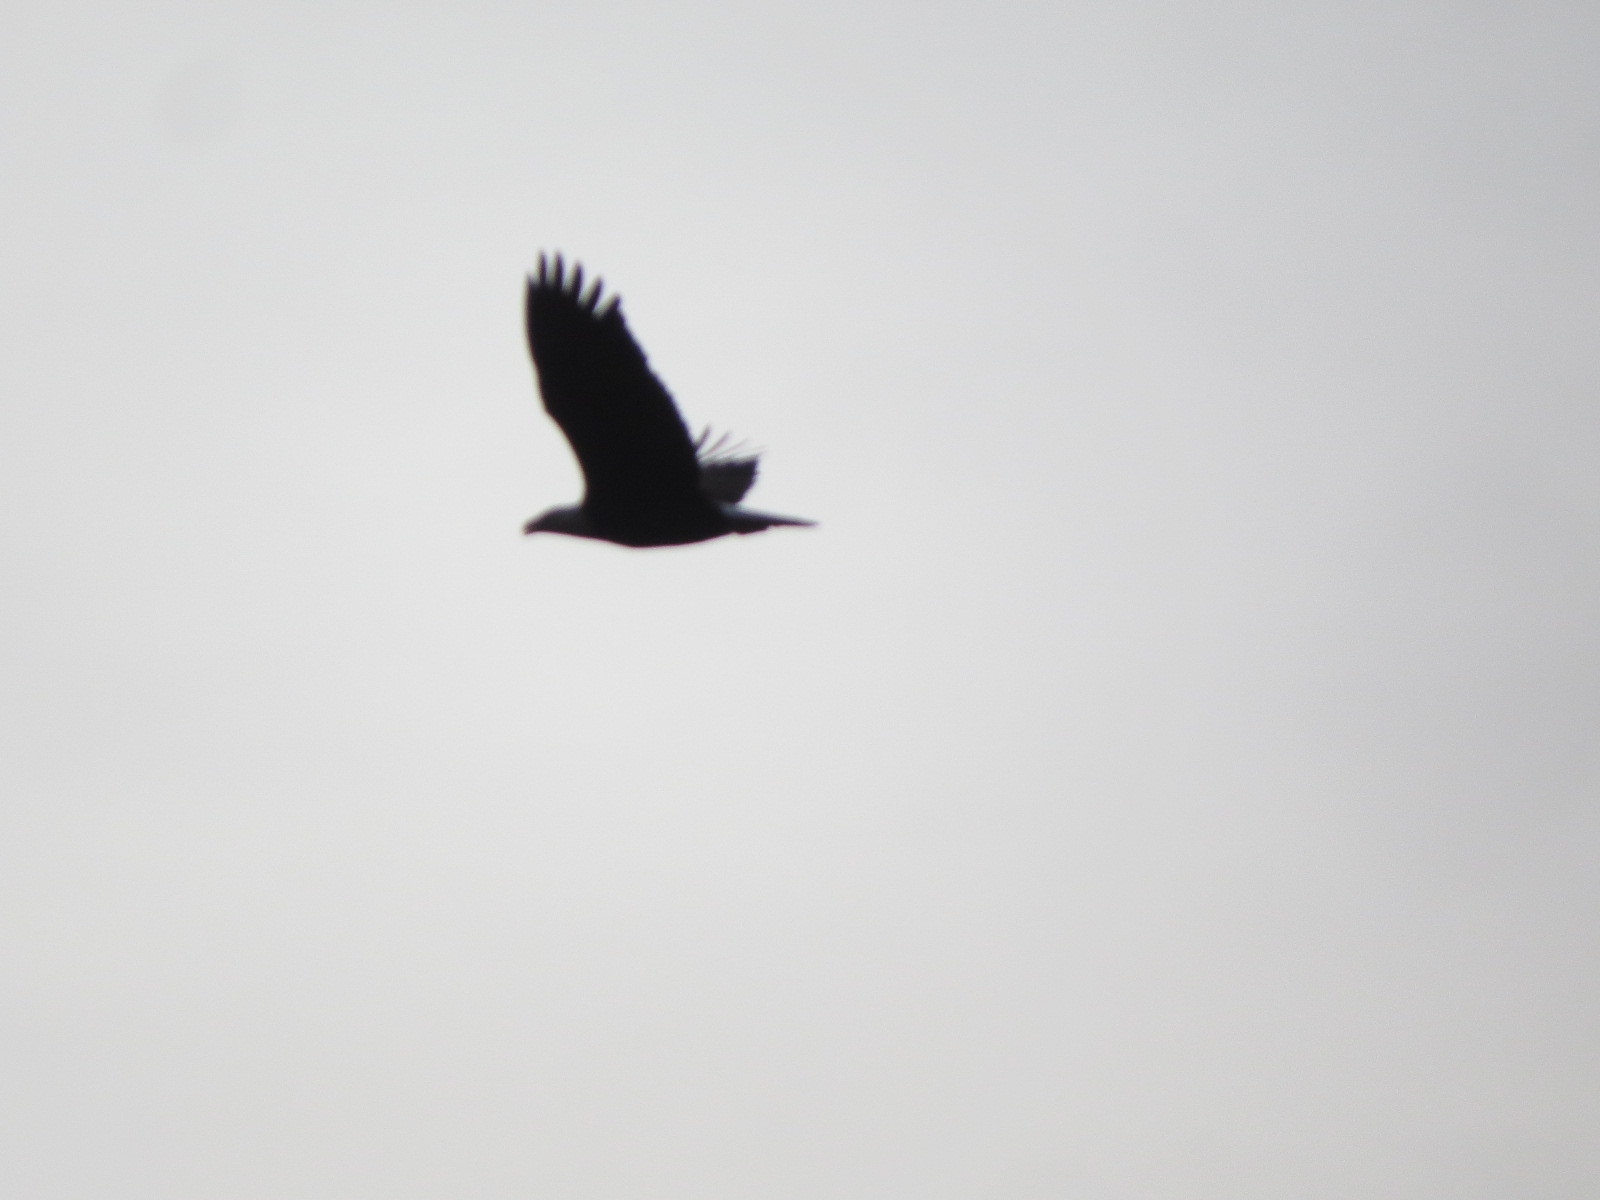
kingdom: Animalia
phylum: Chordata
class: Aves
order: Accipitriformes
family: Accipitridae
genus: Haliaeetus
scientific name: Haliaeetus leucocephalus
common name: Bald eagle
